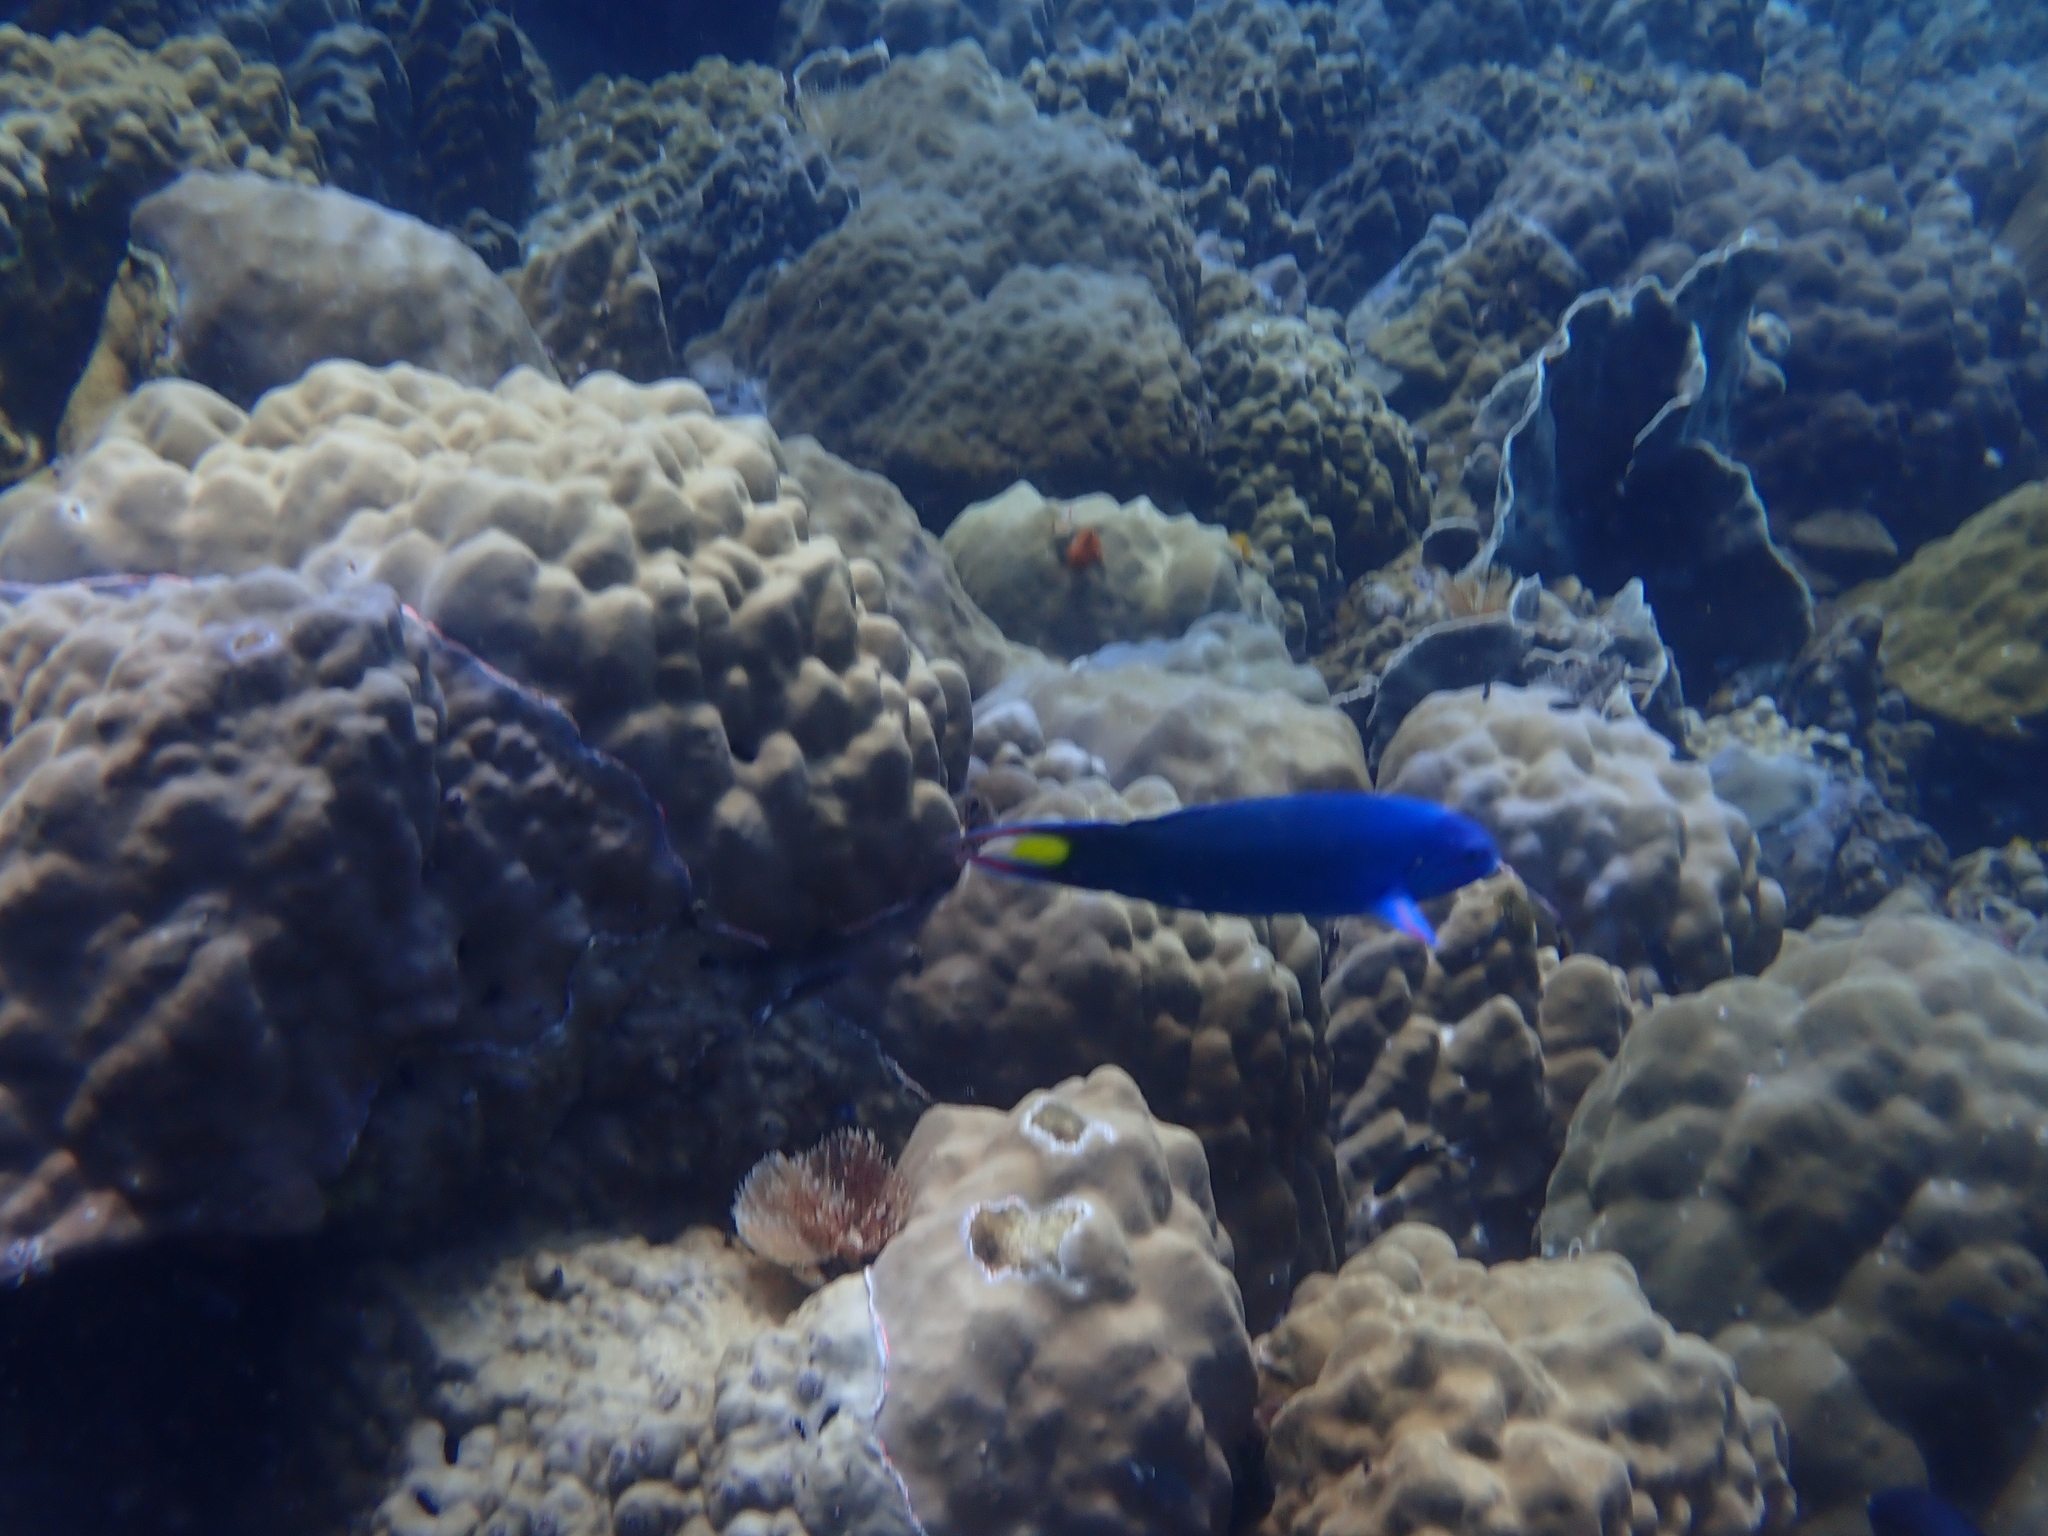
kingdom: Animalia
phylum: Chordata
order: Perciformes
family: Labridae
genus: Thalassoma
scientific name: Thalassoma lunare
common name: Blue wrasse
